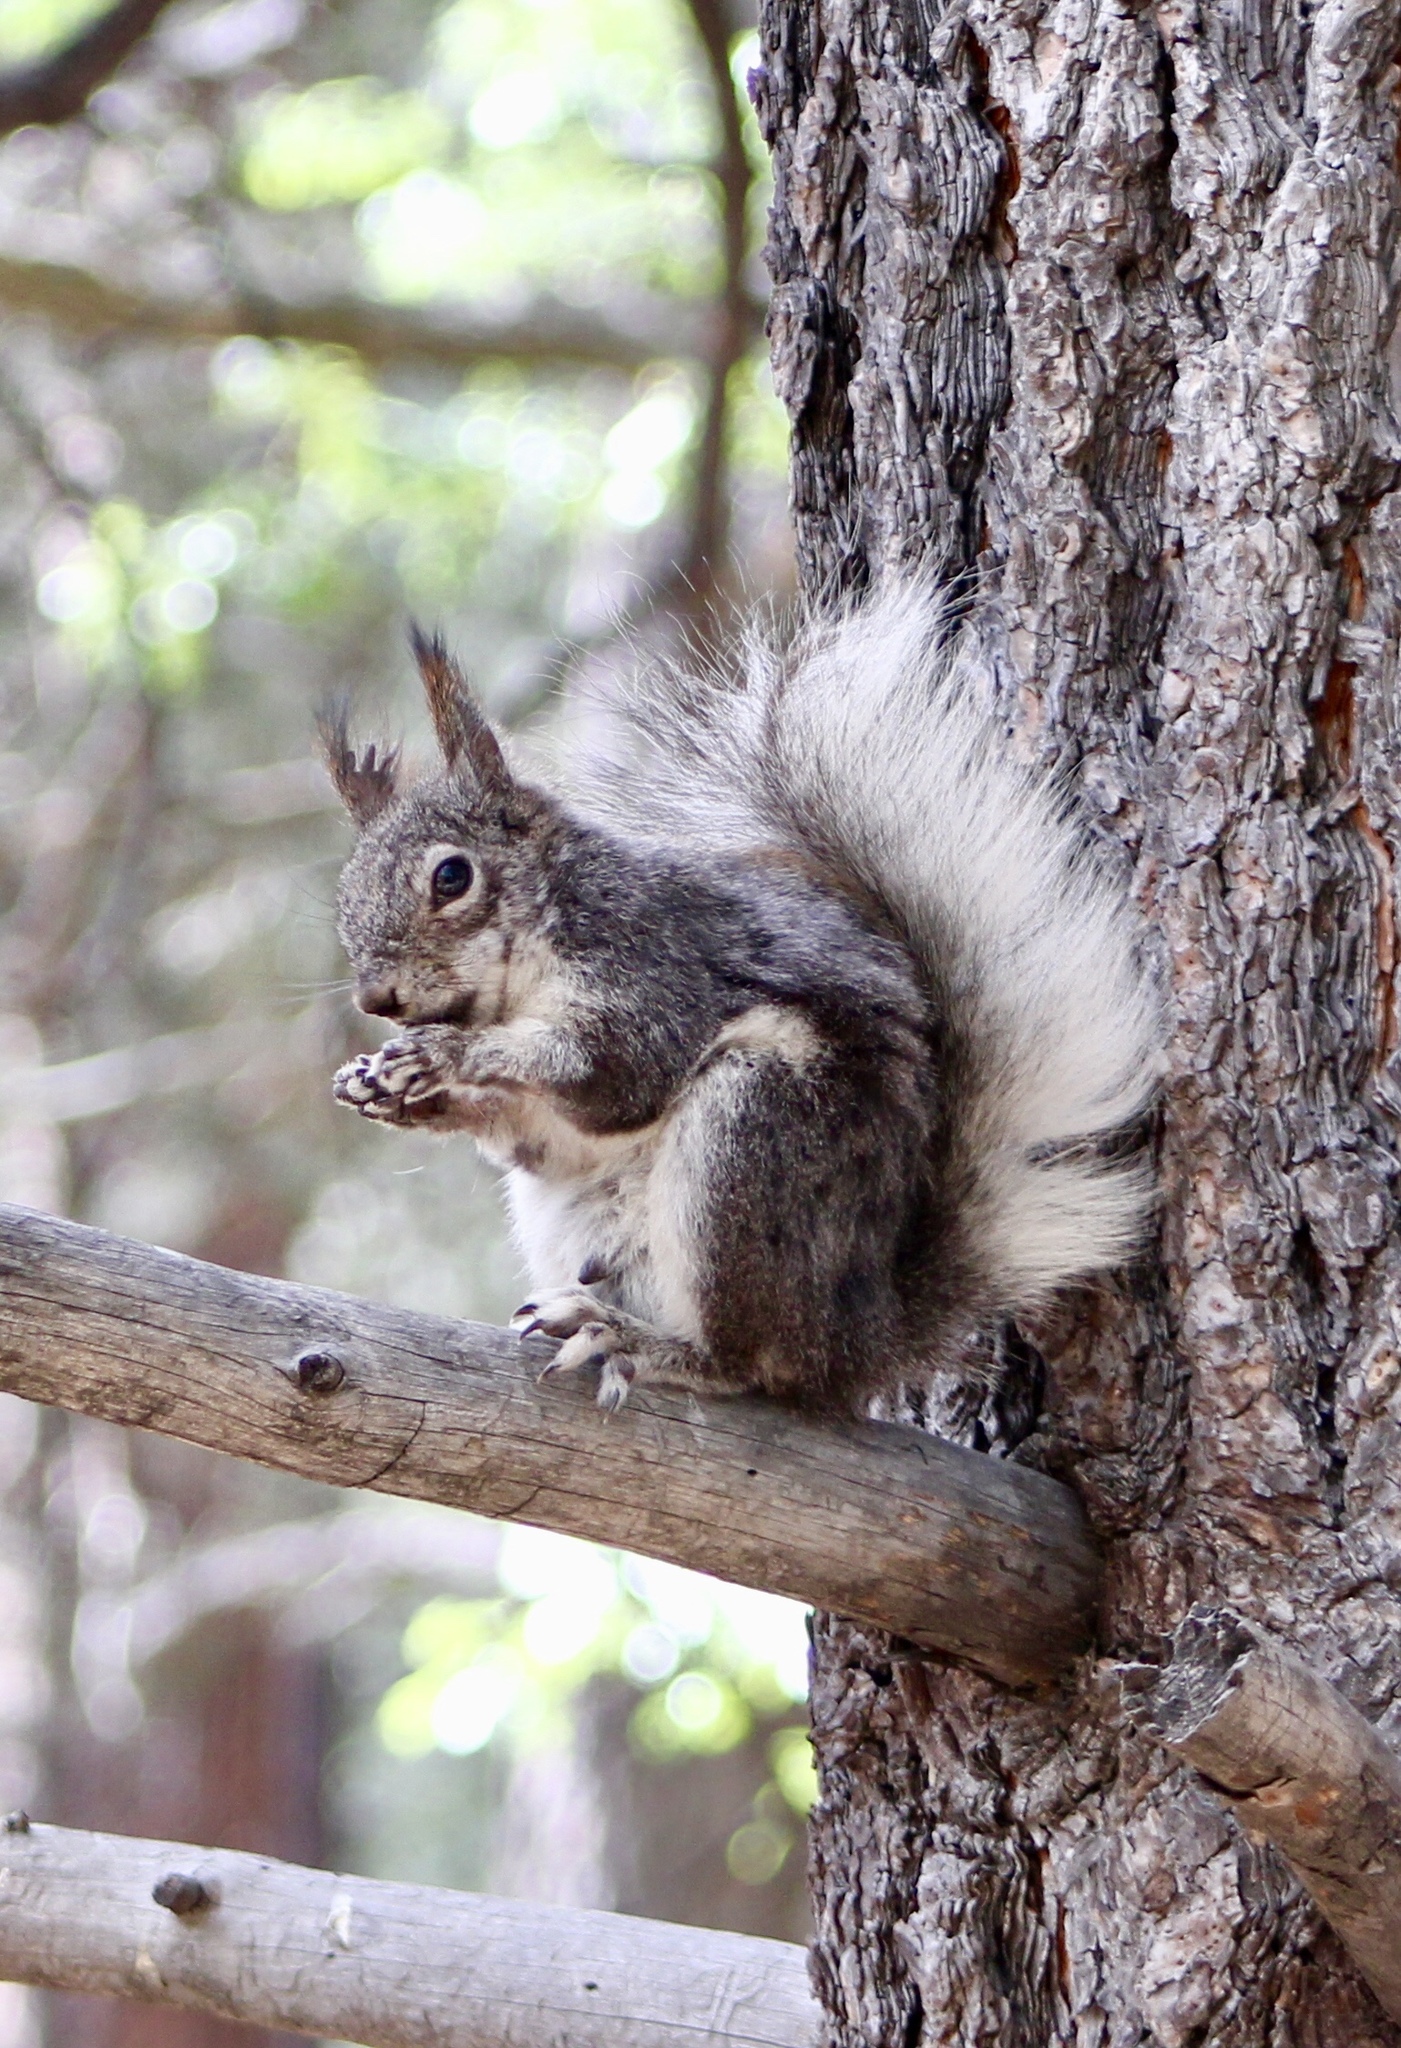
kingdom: Animalia
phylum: Chordata
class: Mammalia
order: Rodentia
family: Sciuridae
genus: Sciurus
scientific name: Sciurus aberti
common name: Abert's squirrel
